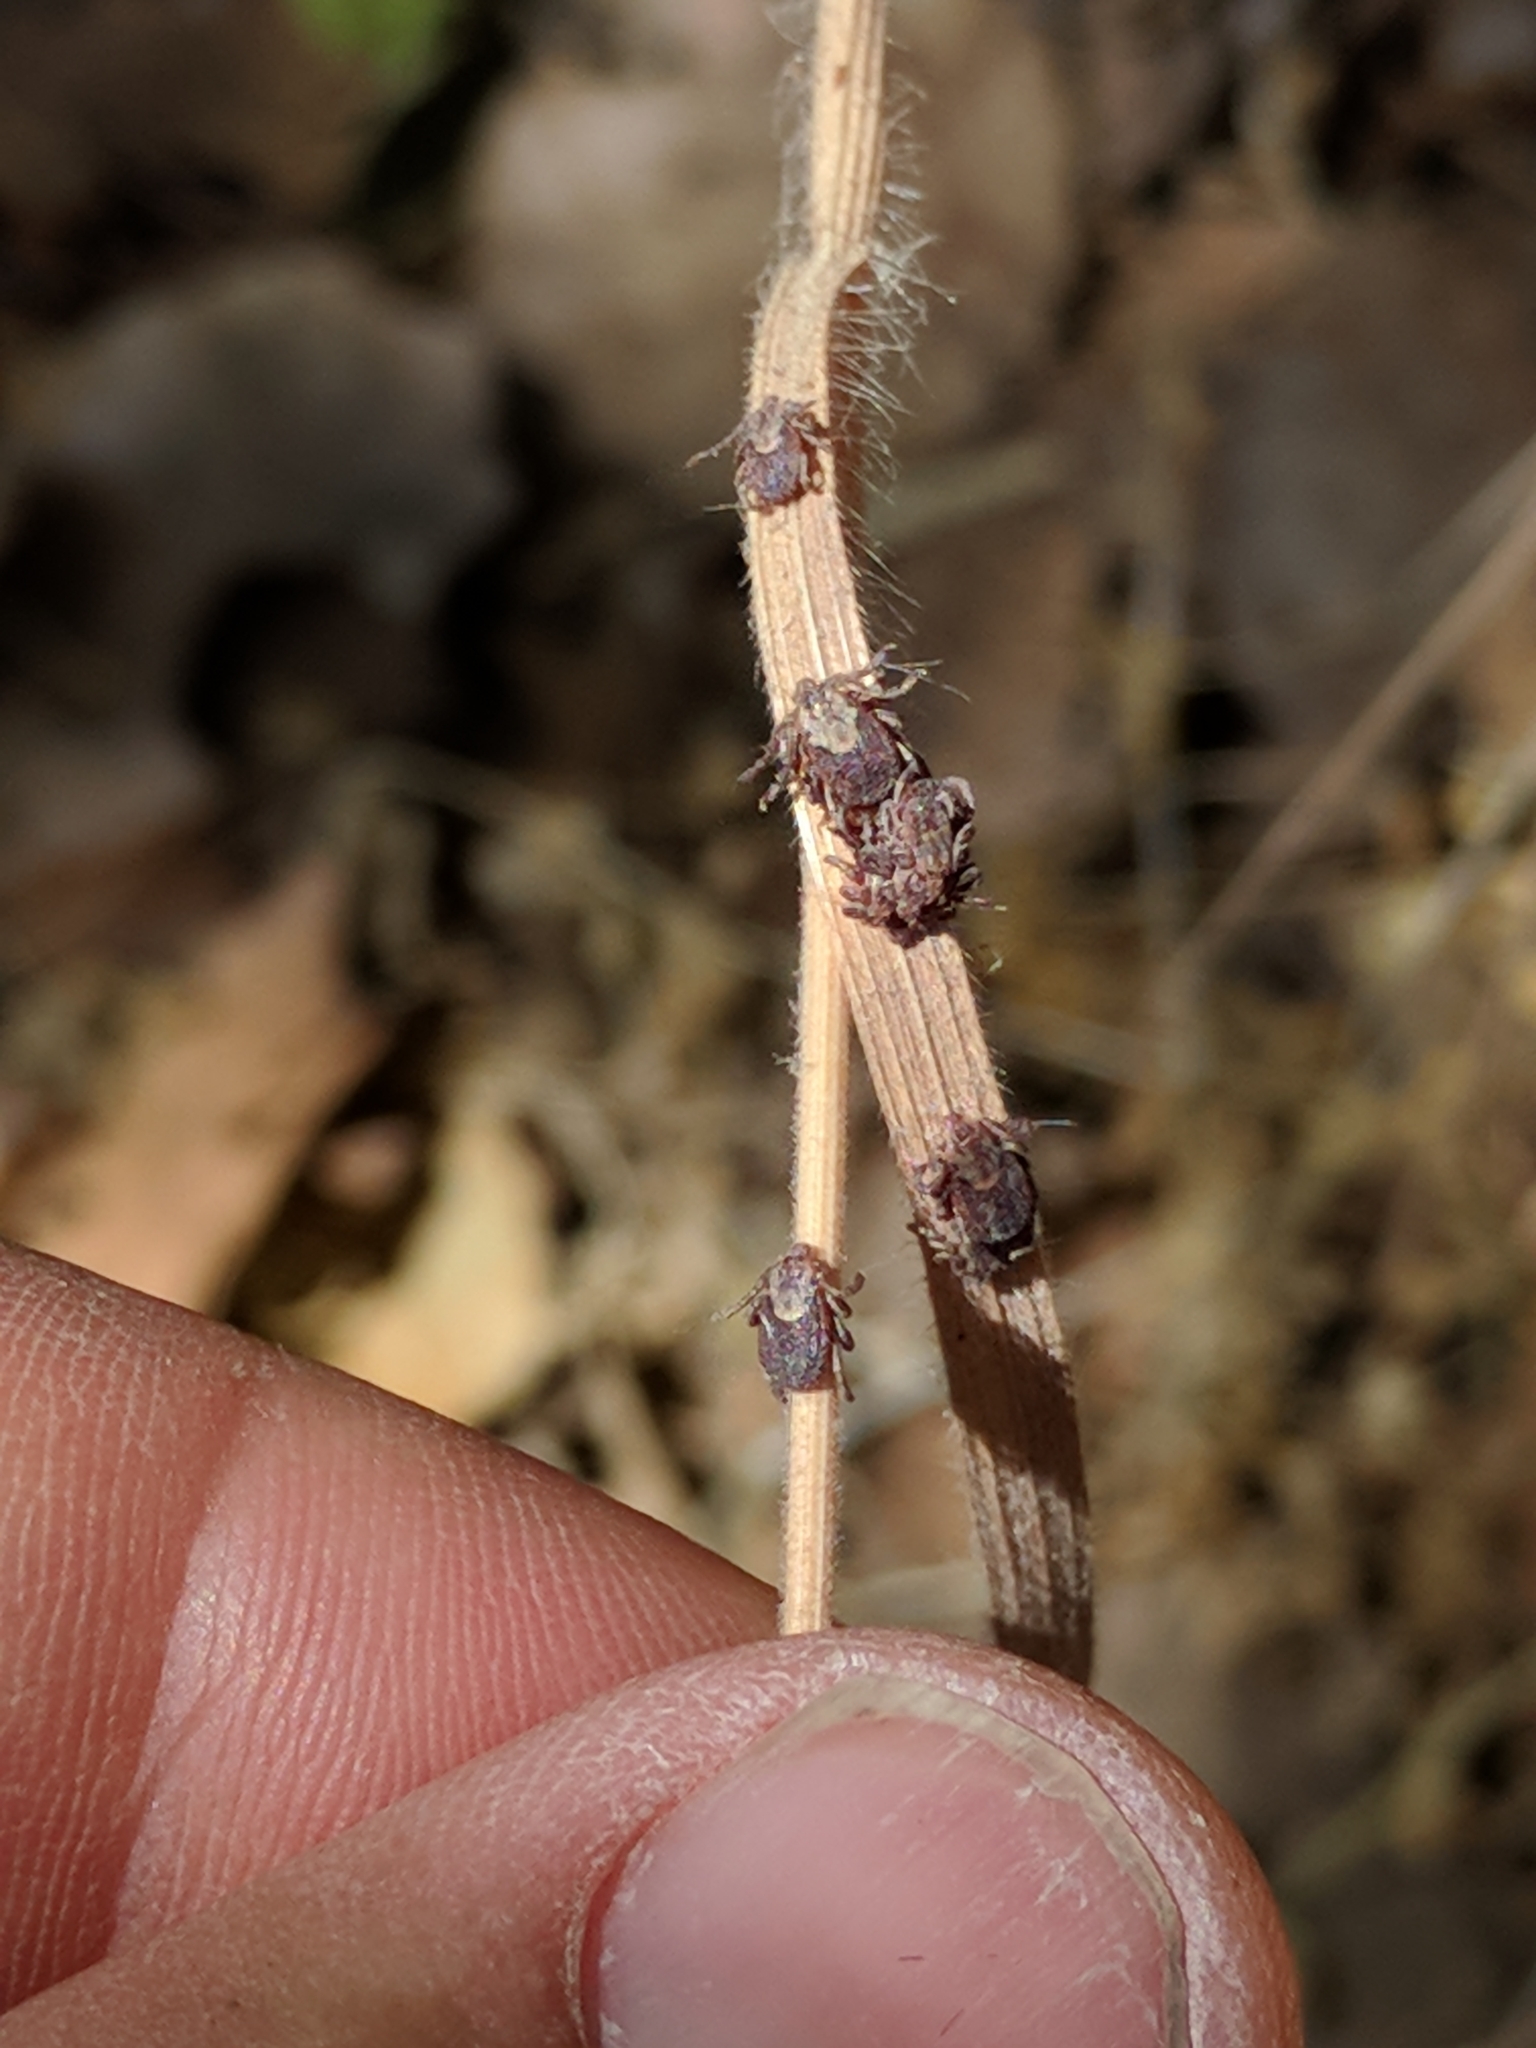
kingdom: Animalia
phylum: Arthropoda
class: Arachnida
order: Ixodida
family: Ixodidae
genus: Dermacentor
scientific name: Dermacentor occidentalis
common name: Net tick
